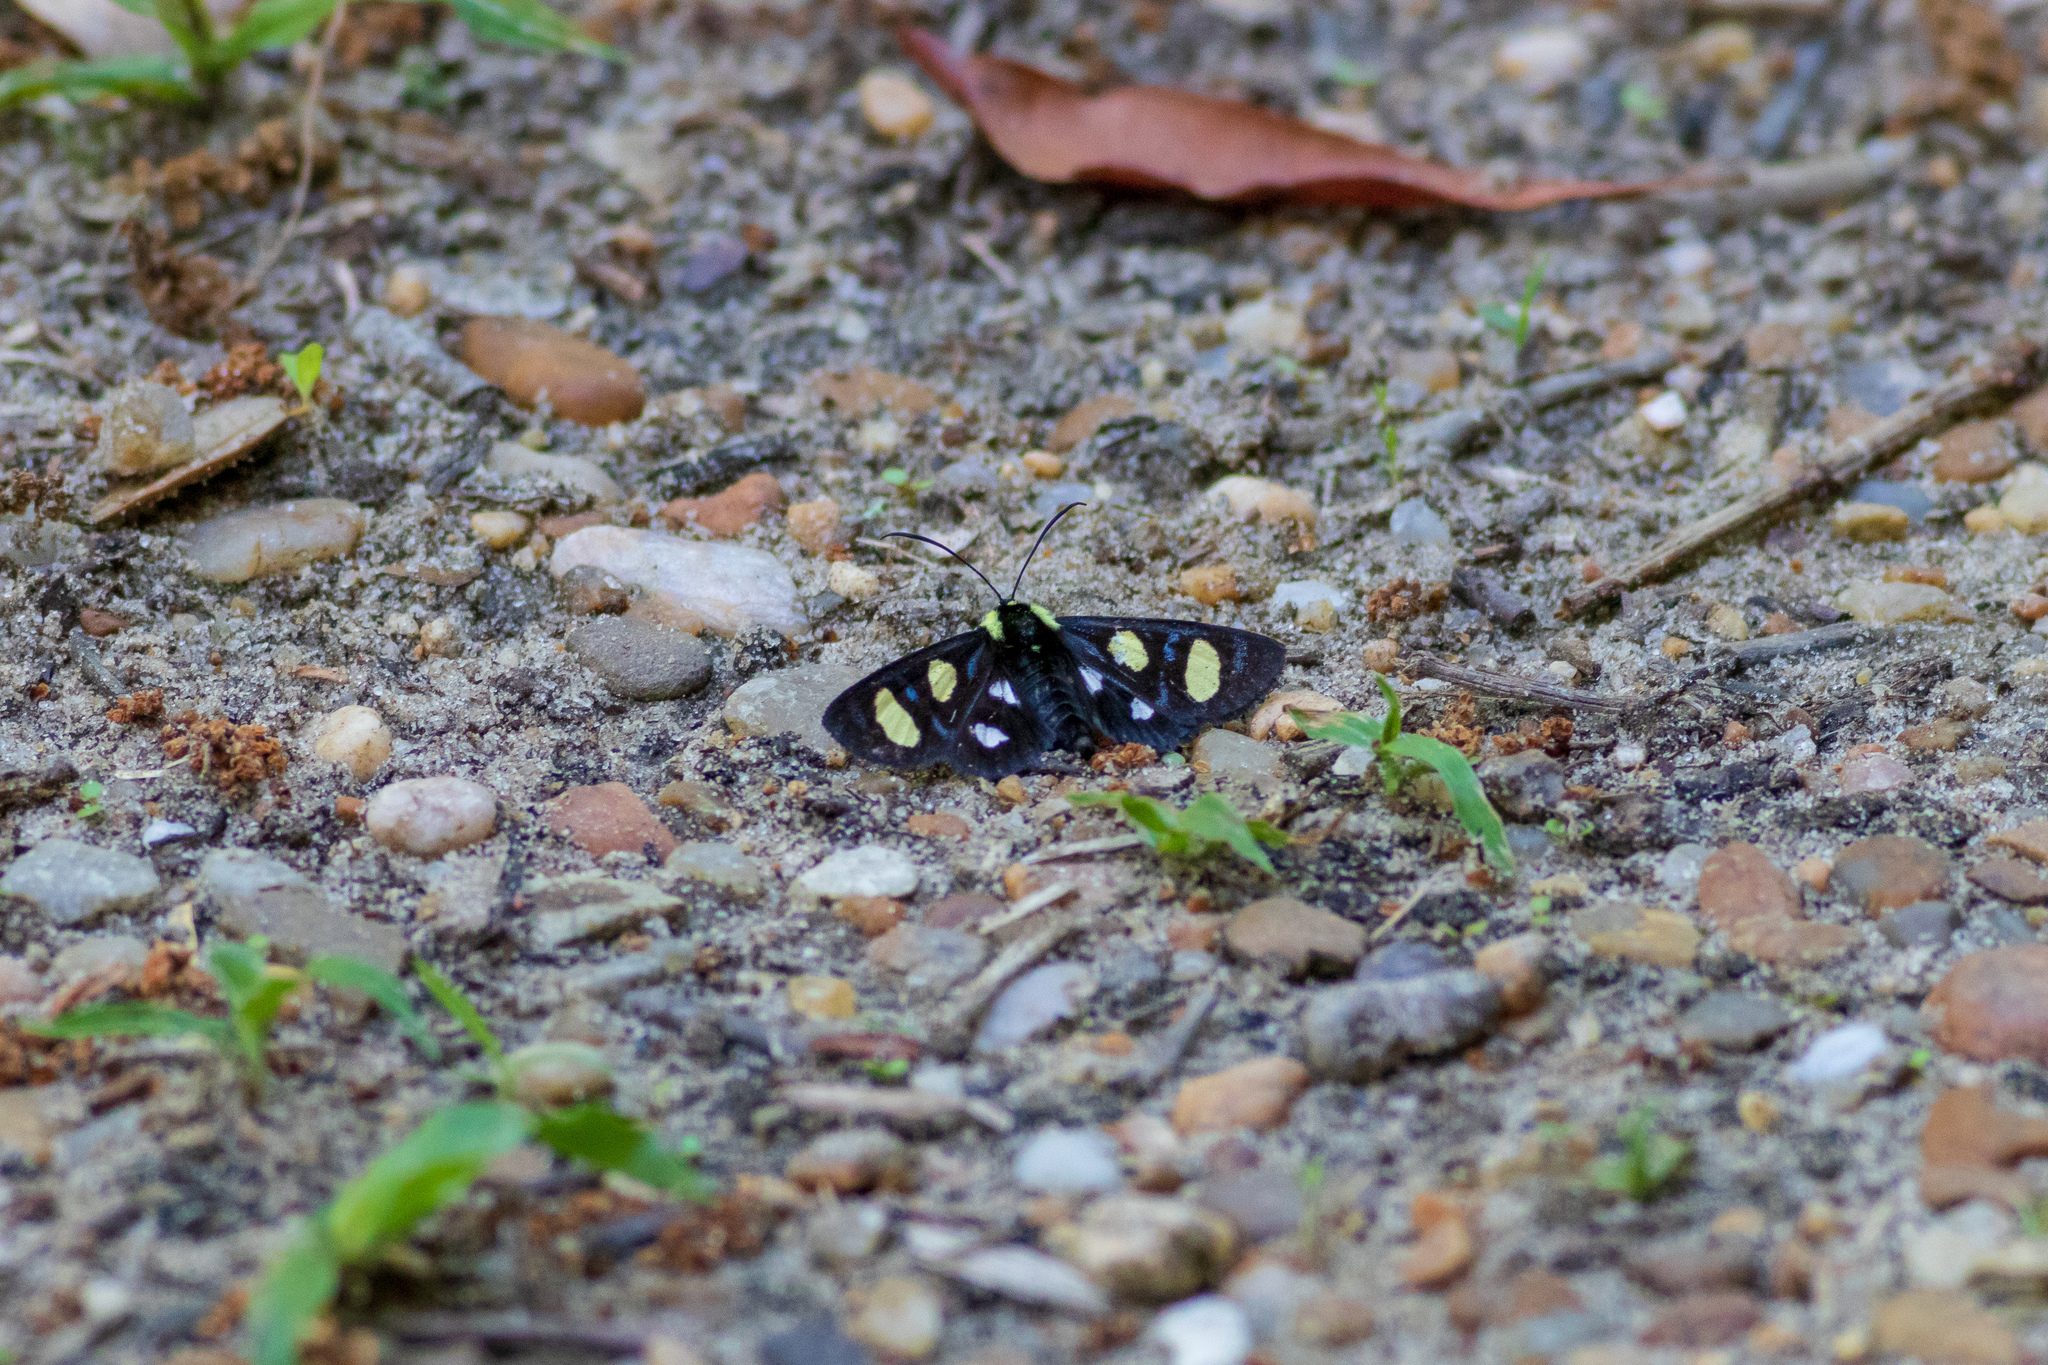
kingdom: Animalia
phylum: Arthropoda
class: Insecta
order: Lepidoptera
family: Noctuidae
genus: Alypia
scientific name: Alypia octomaculata
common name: Eight-spotted forester
